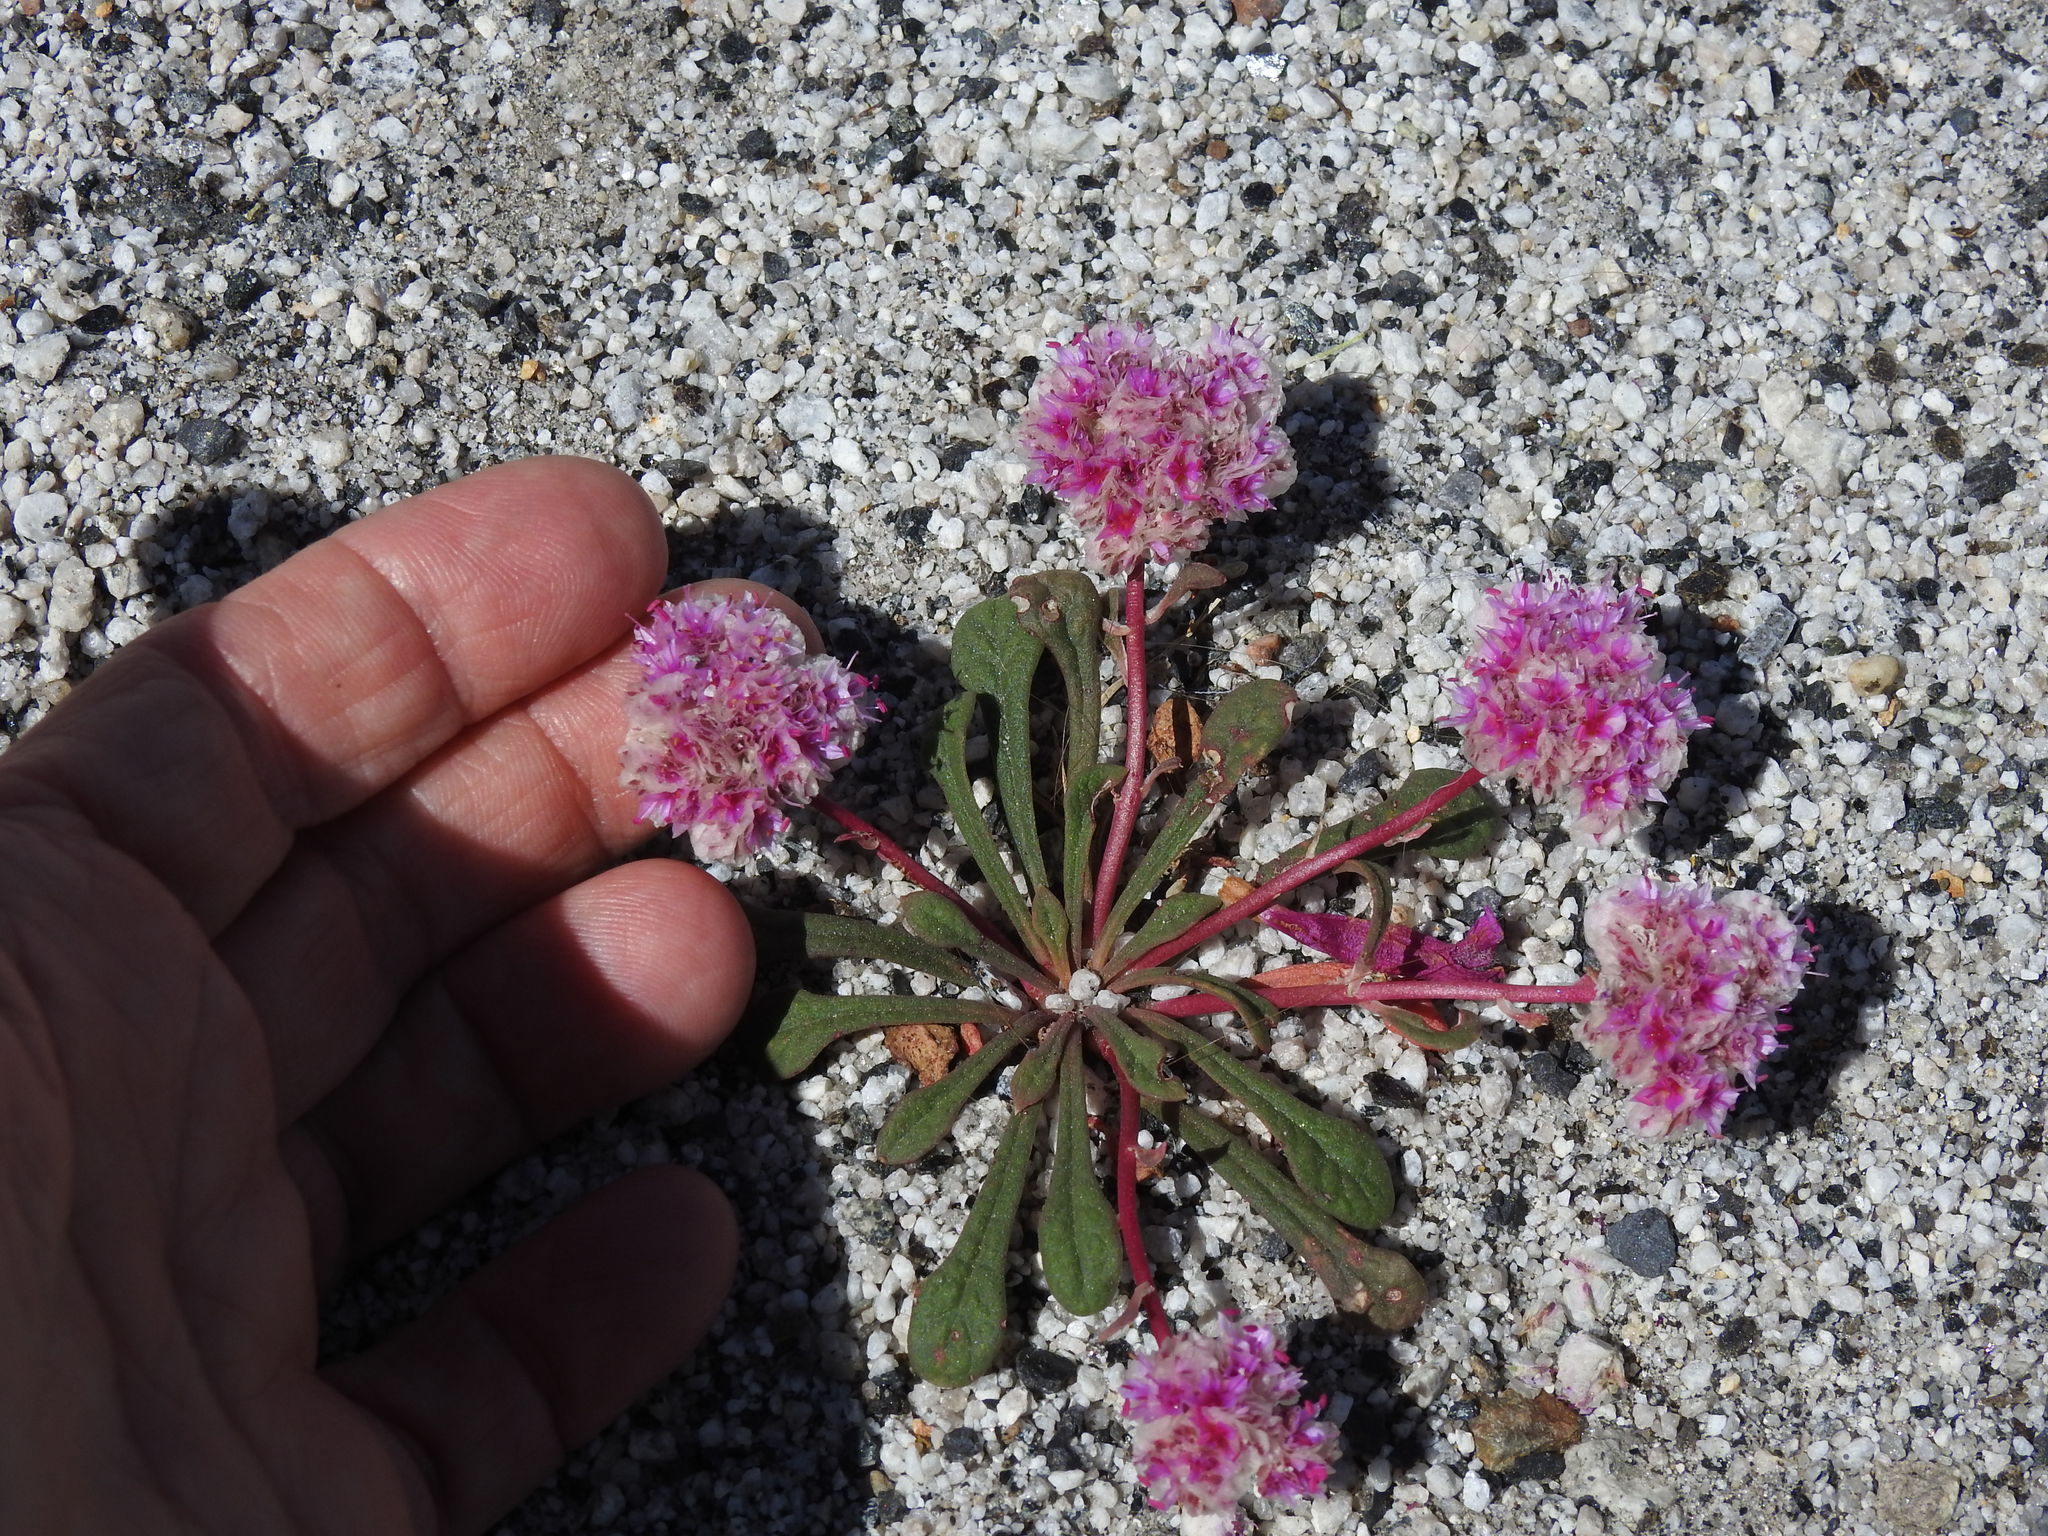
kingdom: Plantae
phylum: Tracheophyta
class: Magnoliopsida
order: Caryophyllales
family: Montiaceae
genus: Calyptridium
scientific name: Calyptridium monospermum
